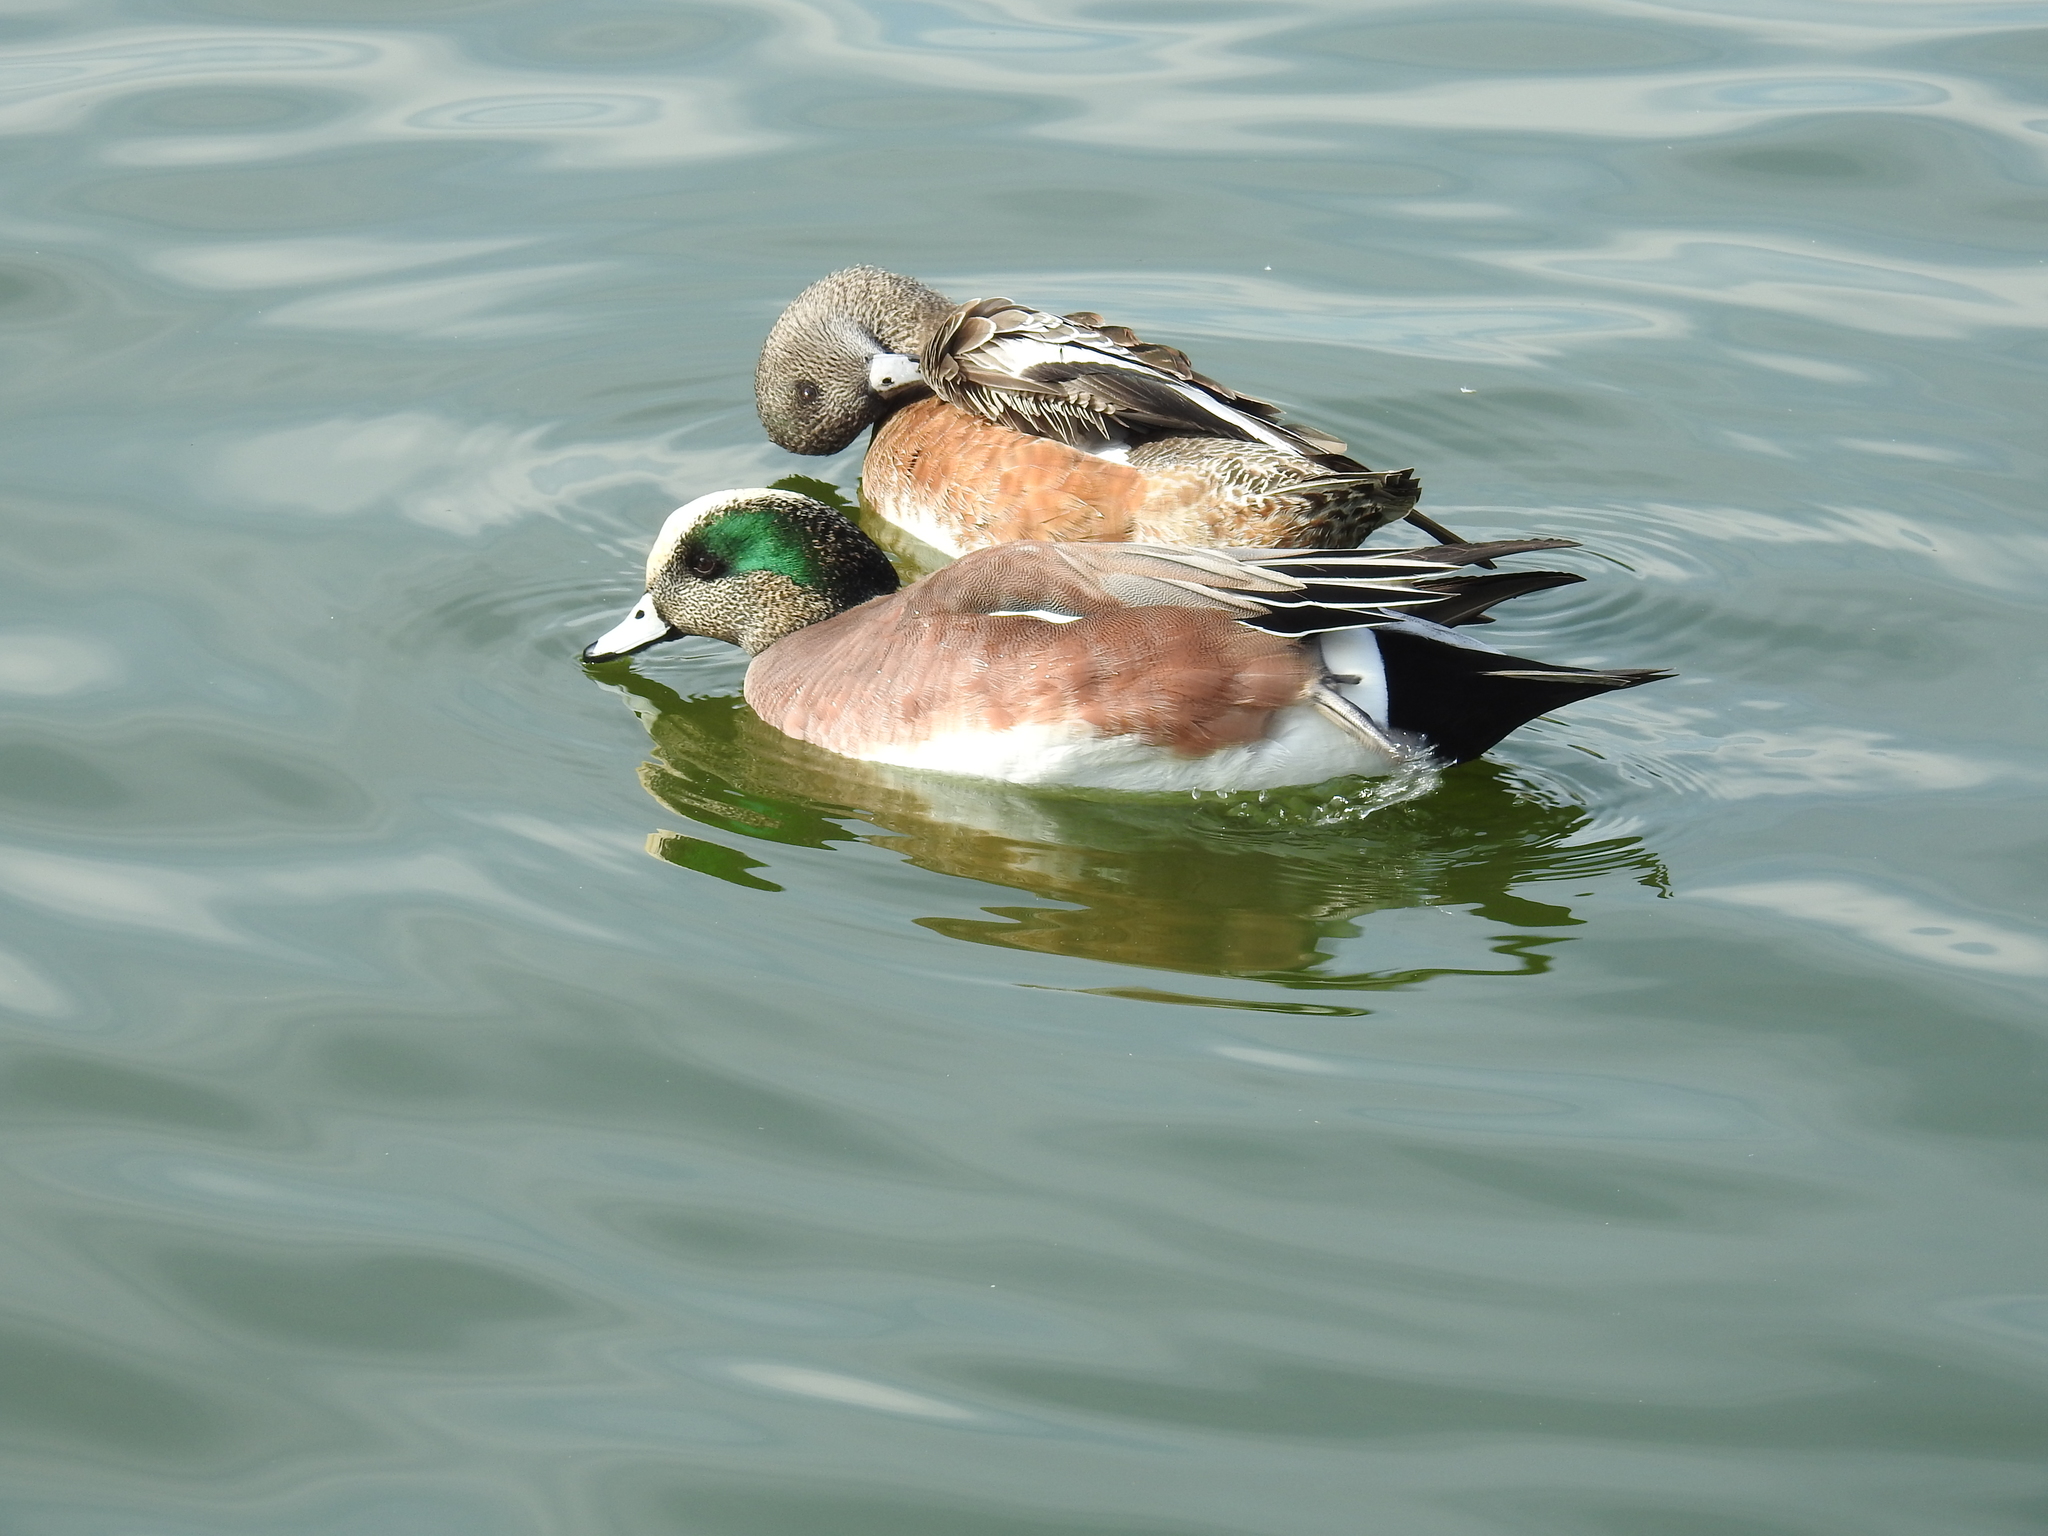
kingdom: Animalia
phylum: Chordata
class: Aves
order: Anseriformes
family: Anatidae
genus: Mareca
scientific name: Mareca americana
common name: American wigeon
